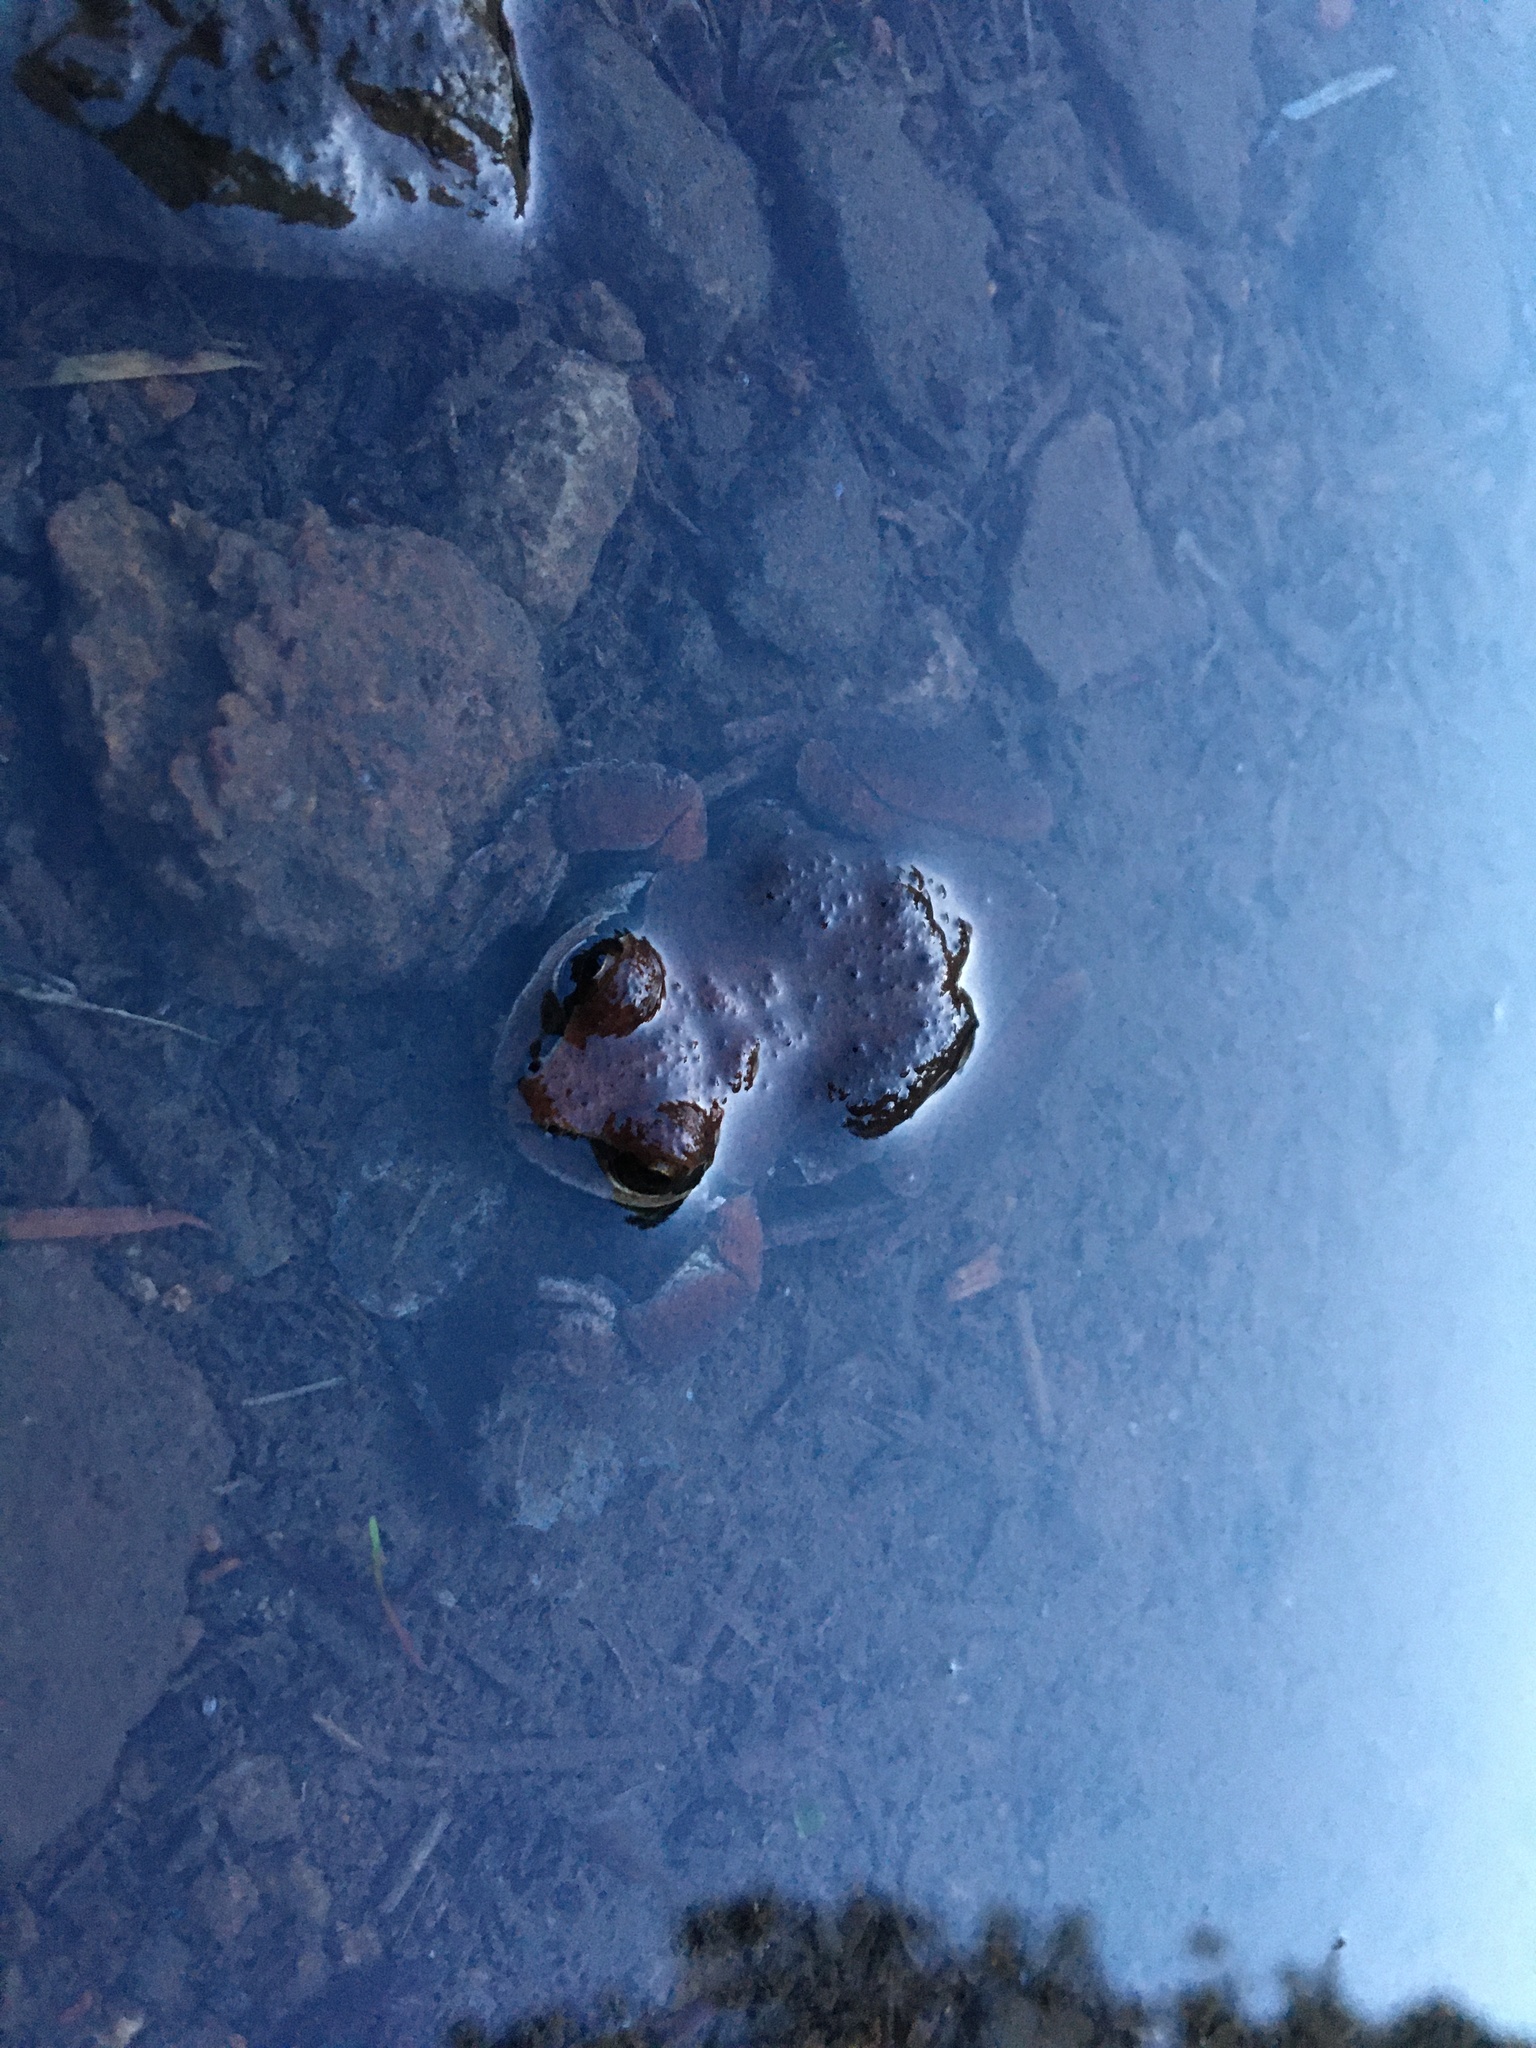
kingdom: Animalia
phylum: Chordata
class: Amphibia
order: Anura
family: Hylidae
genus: Pseudacris
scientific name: Pseudacris regilla
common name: Pacific chorus frog
